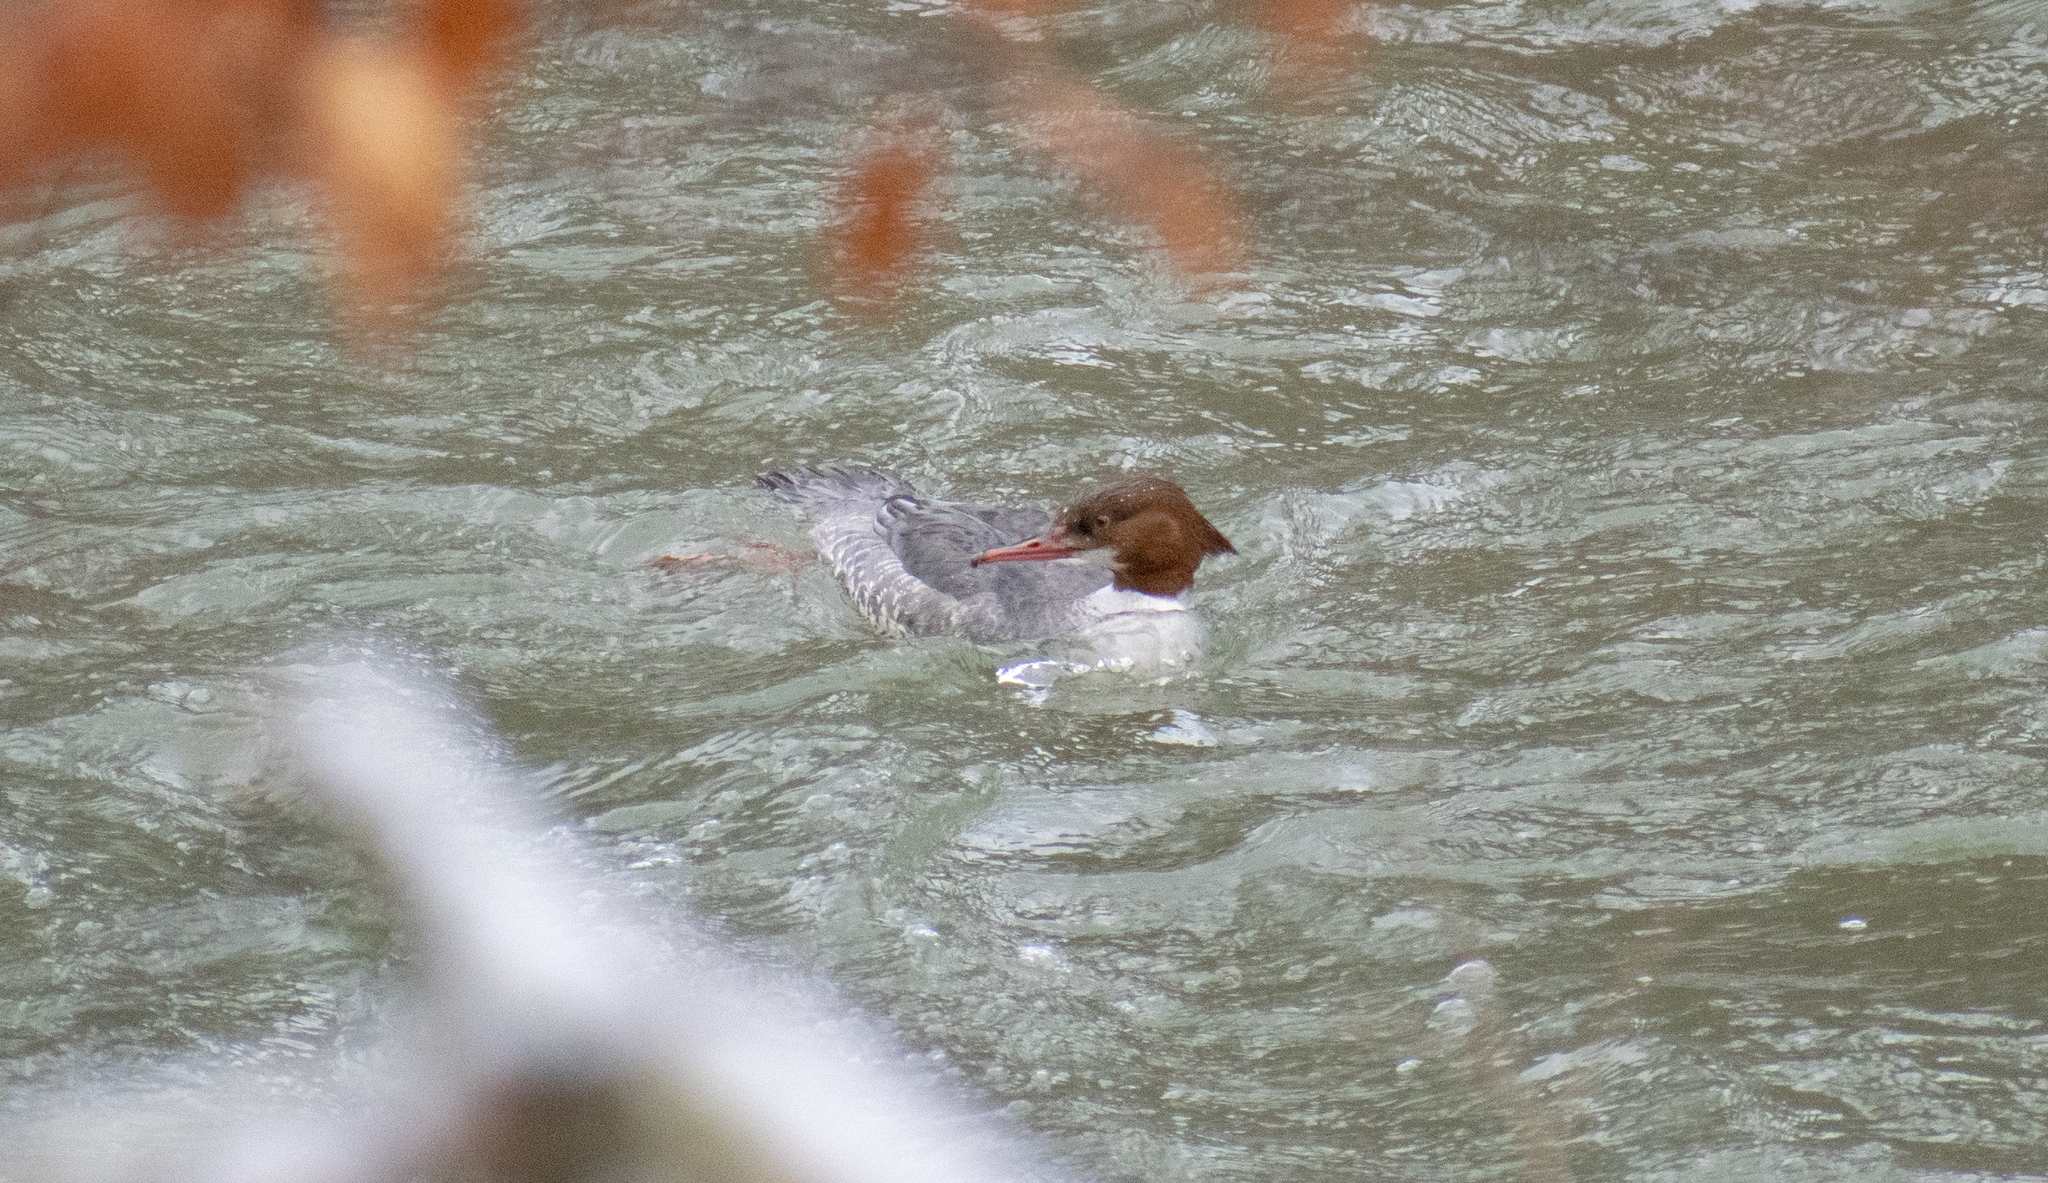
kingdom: Animalia
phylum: Chordata
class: Aves
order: Anseriformes
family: Anatidae
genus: Mergus
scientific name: Mergus merganser
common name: Common merganser
